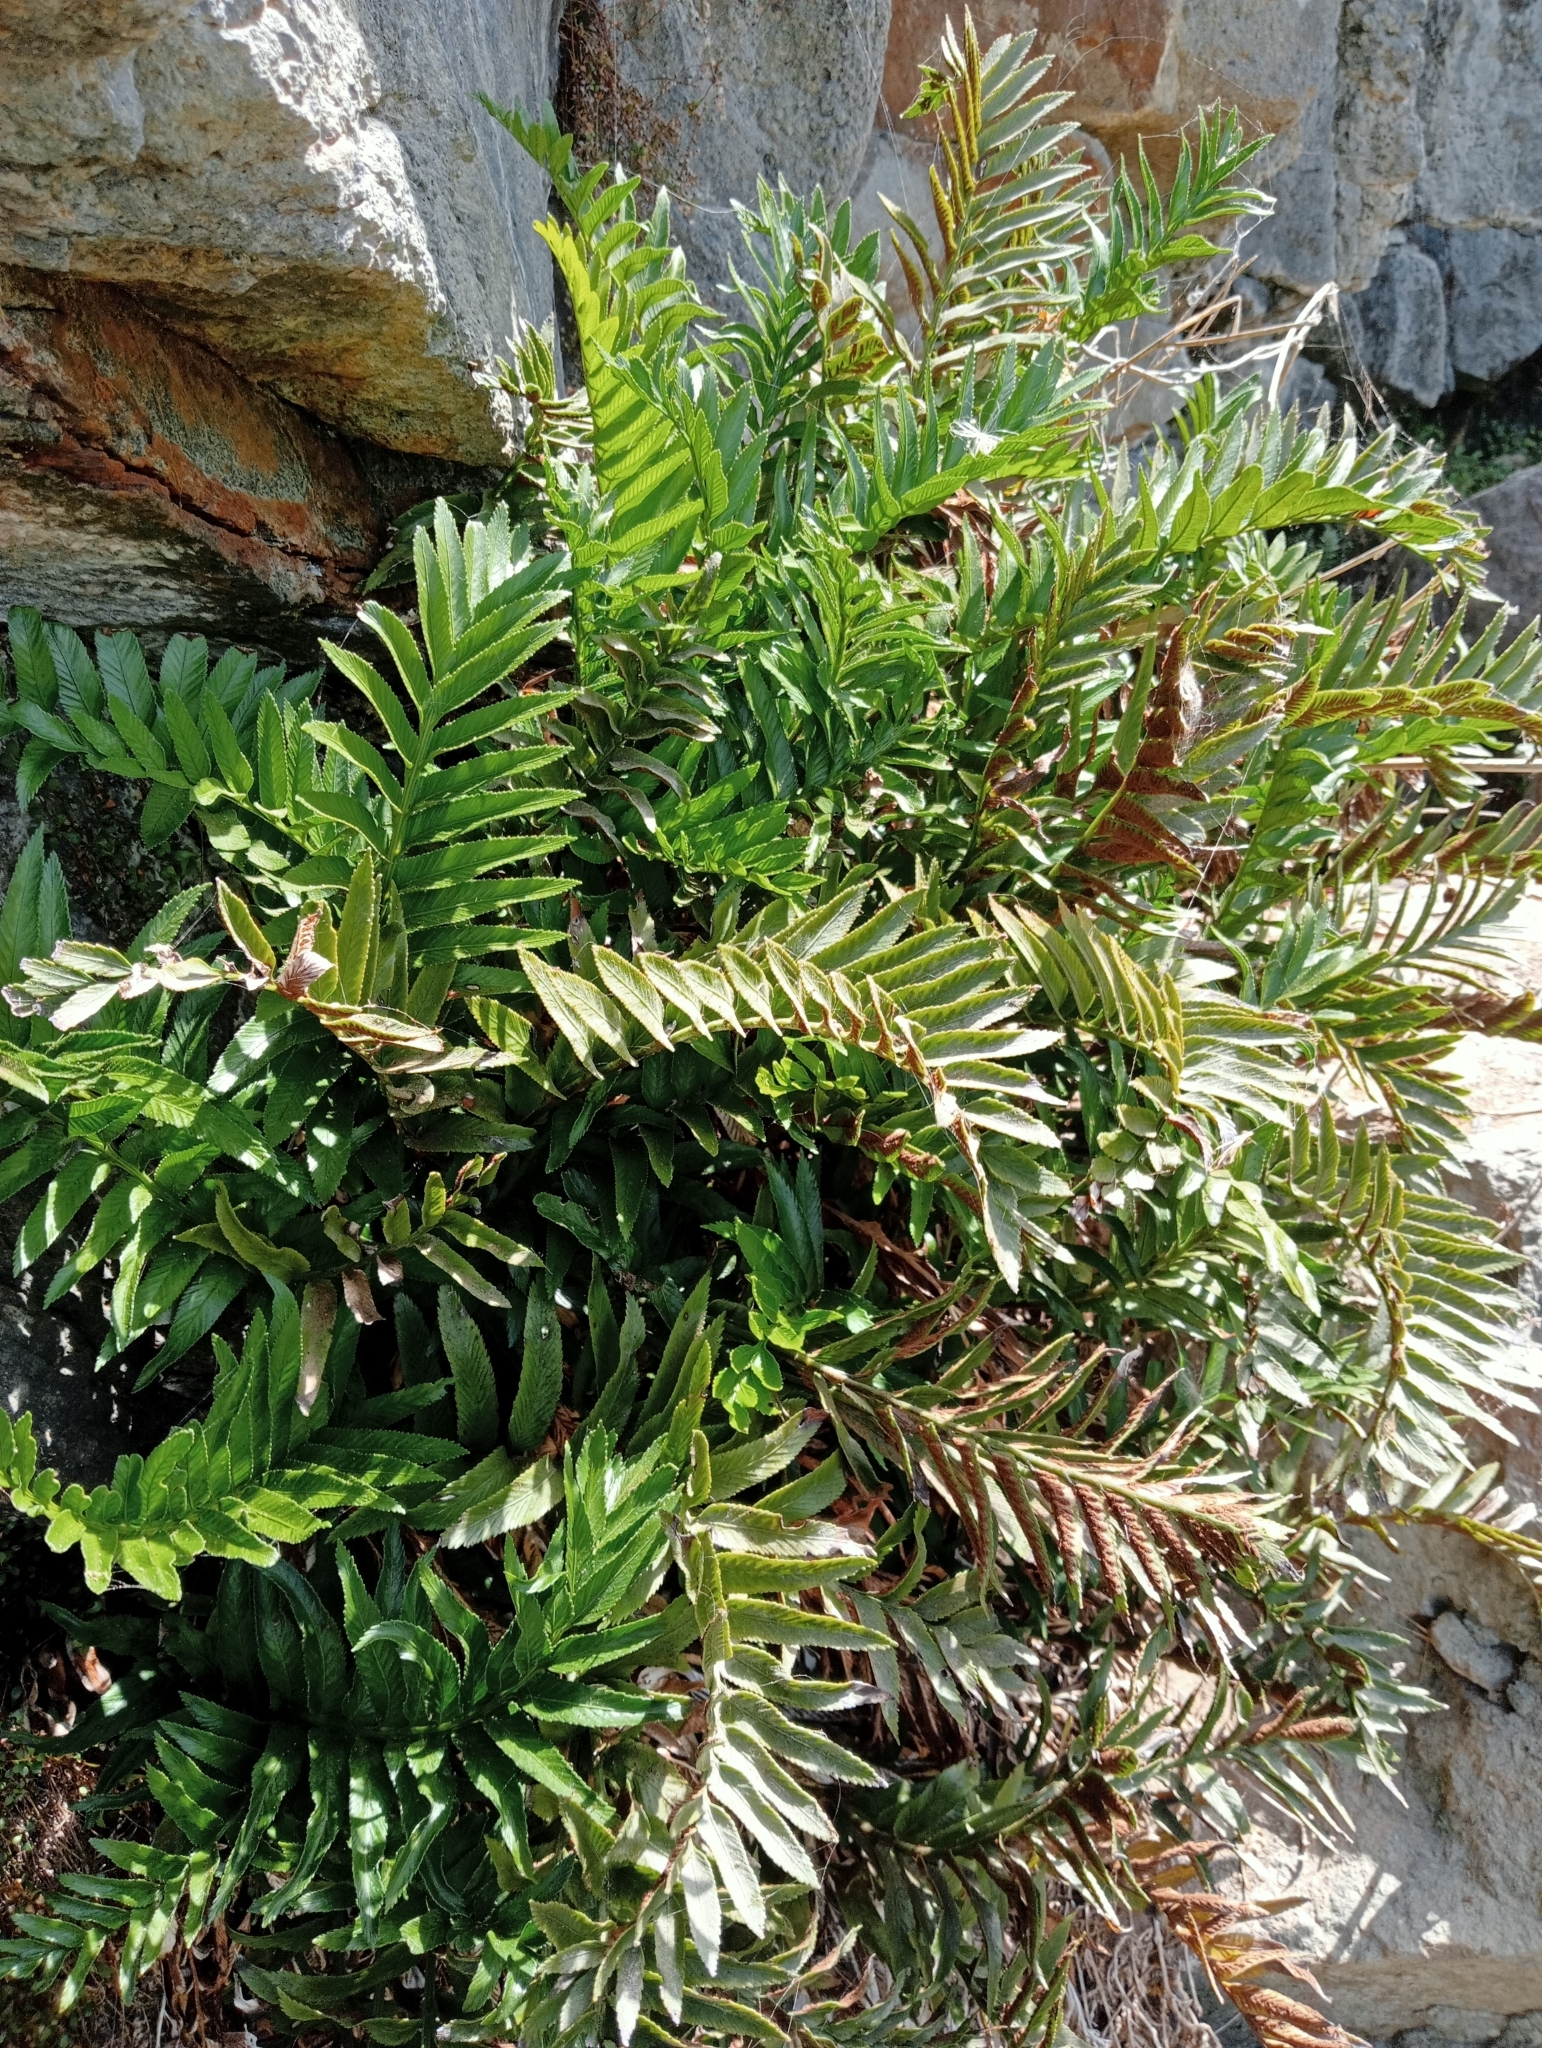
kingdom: Plantae
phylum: Tracheophyta
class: Polypodiopsida
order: Polypodiales
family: Aspleniaceae
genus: Asplenium
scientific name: Asplenium obtusatum
